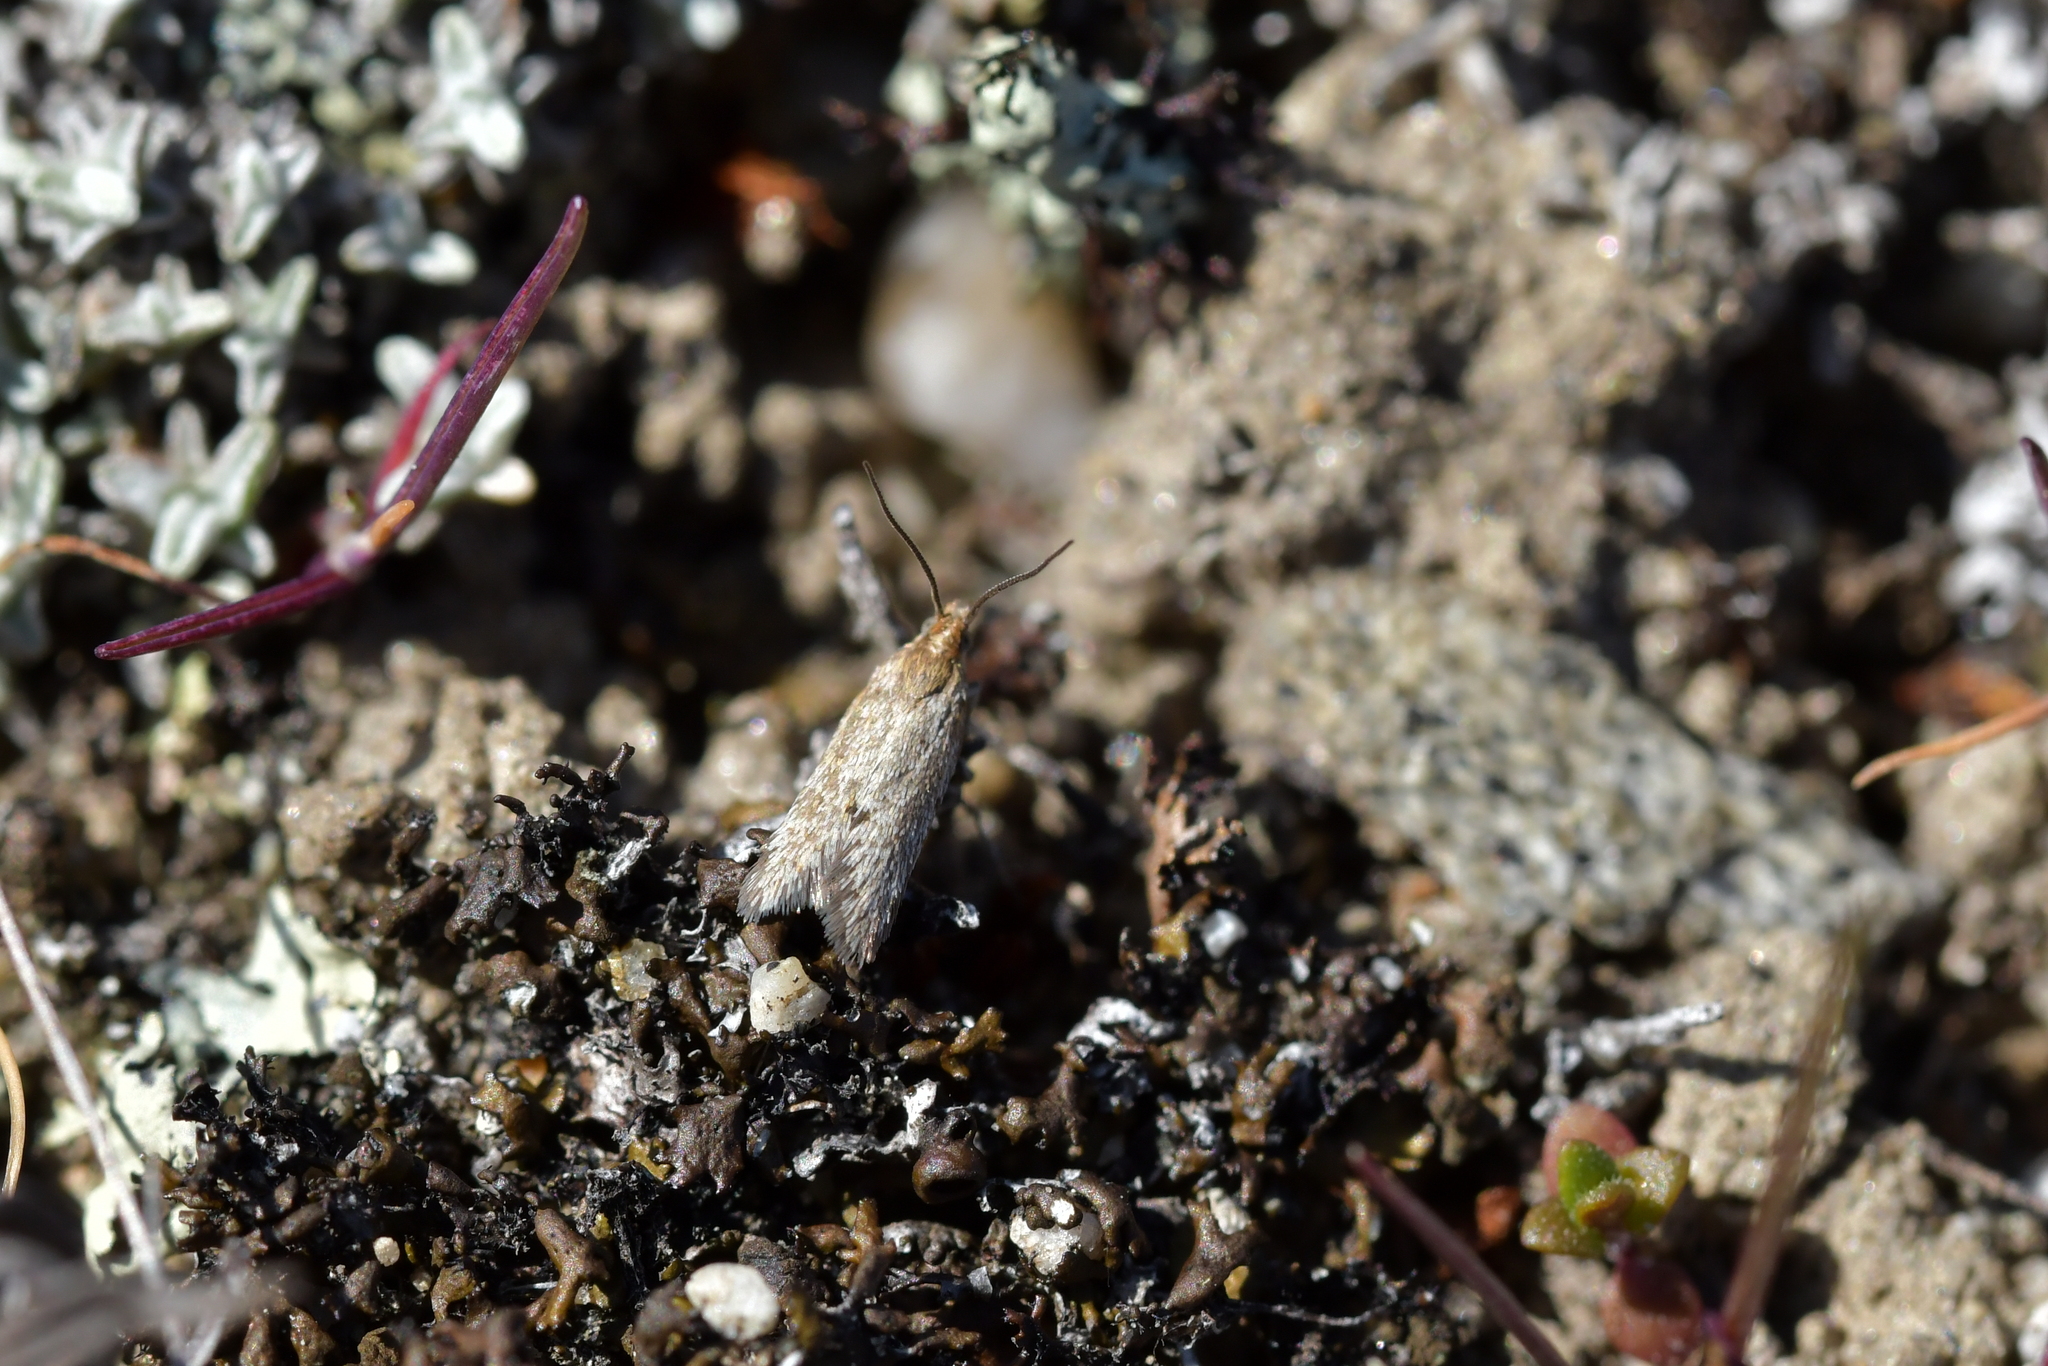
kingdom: Animalia
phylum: Arthropoda
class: Insecta
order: Lepidoptera
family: Tortricidae
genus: Eurythecta
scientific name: Eurythecta zelaea
